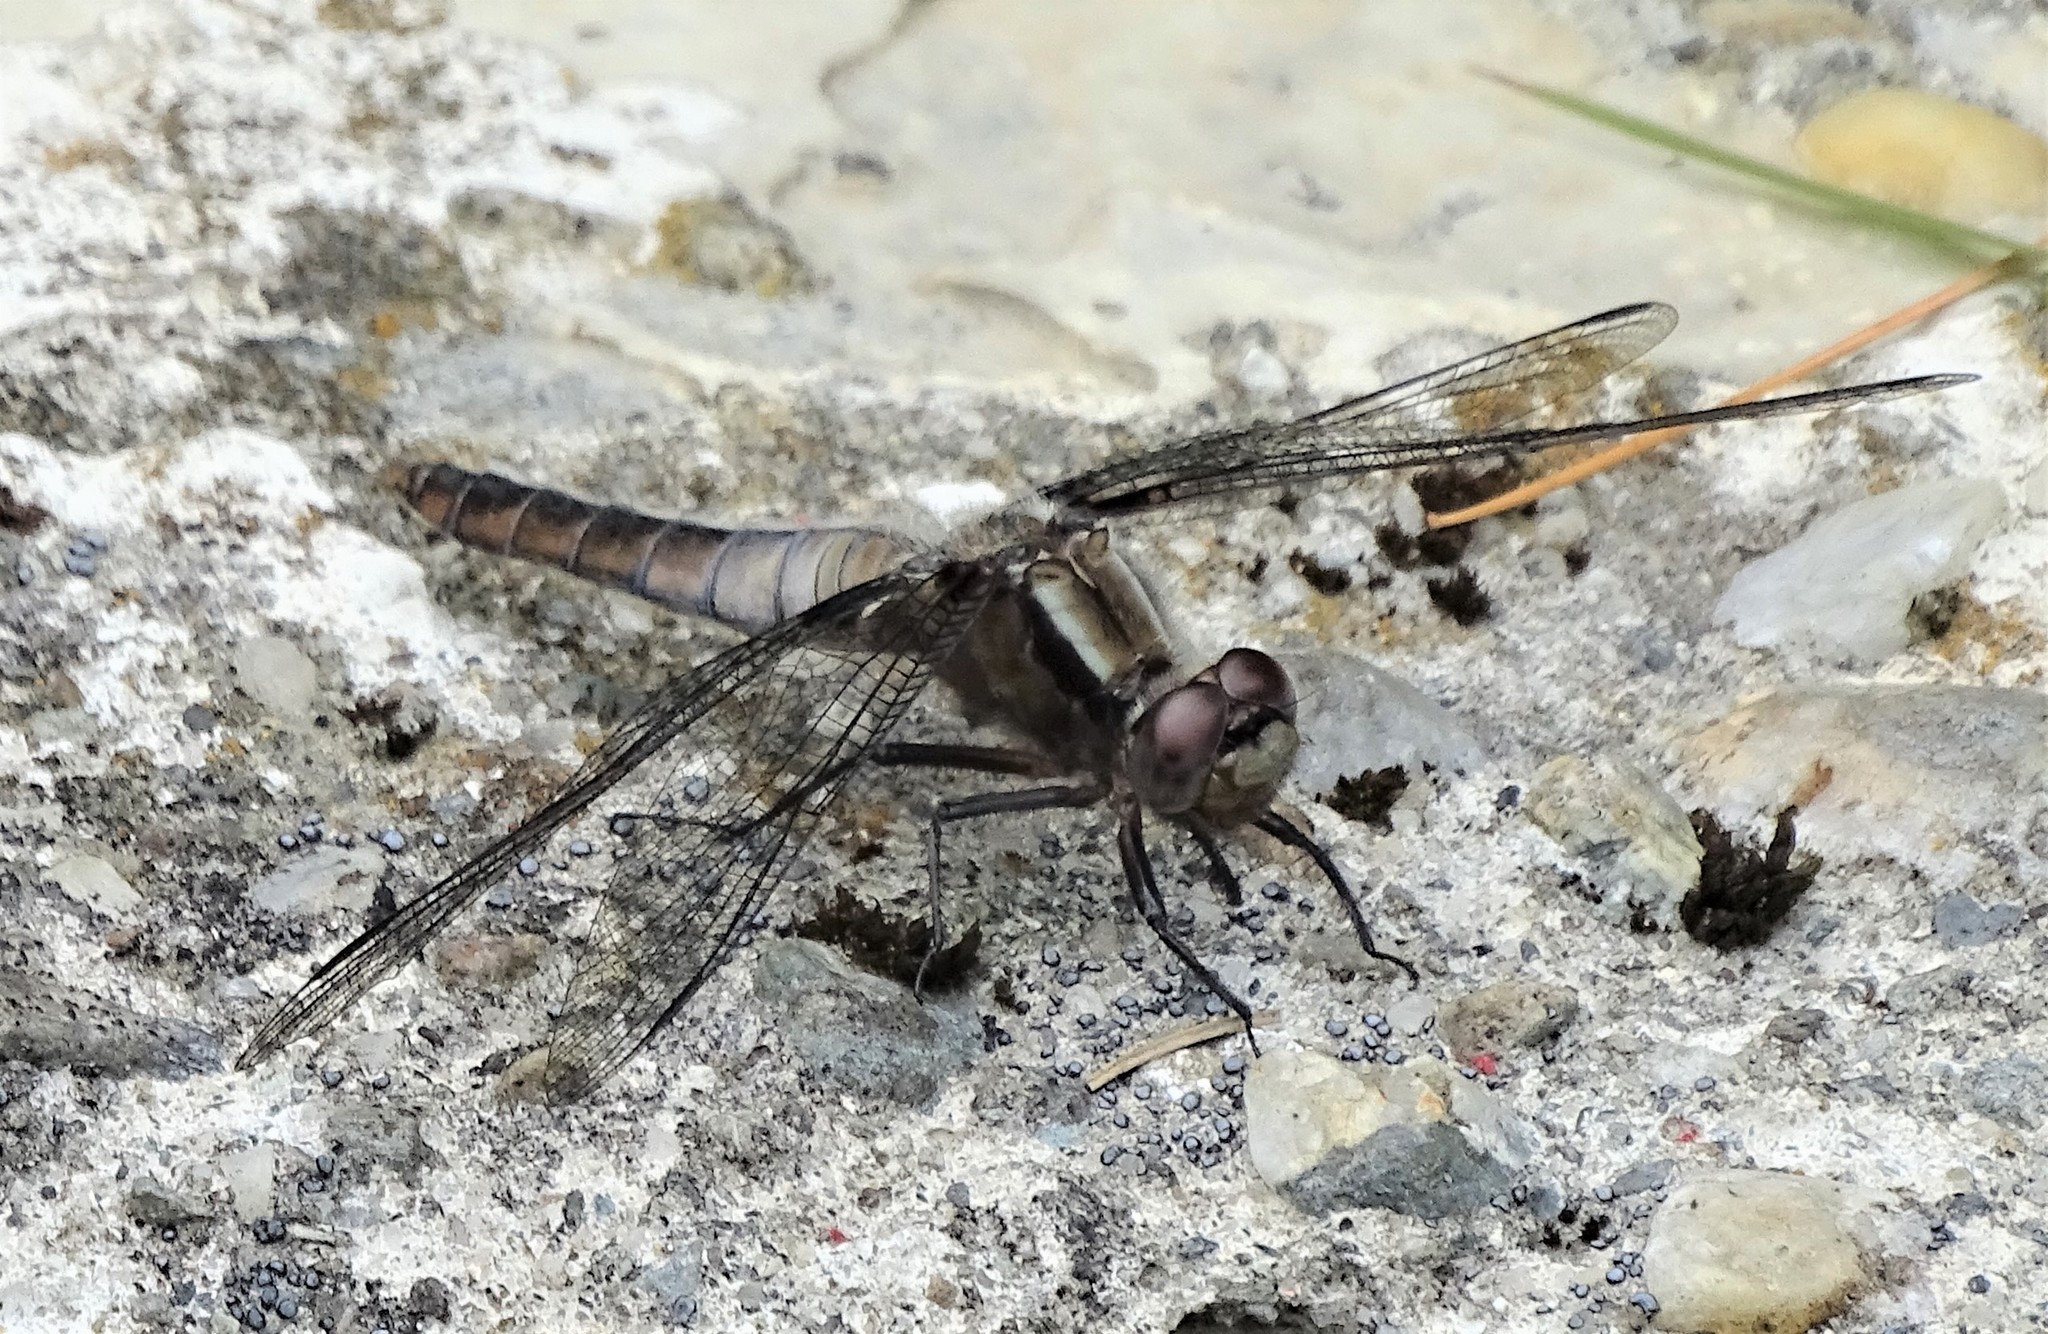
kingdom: Animalia
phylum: Arthropoda
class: Insecta
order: Odonata
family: Libellulidae
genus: Ladona
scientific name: Ladona julia
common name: Chalk-fronted corporal
